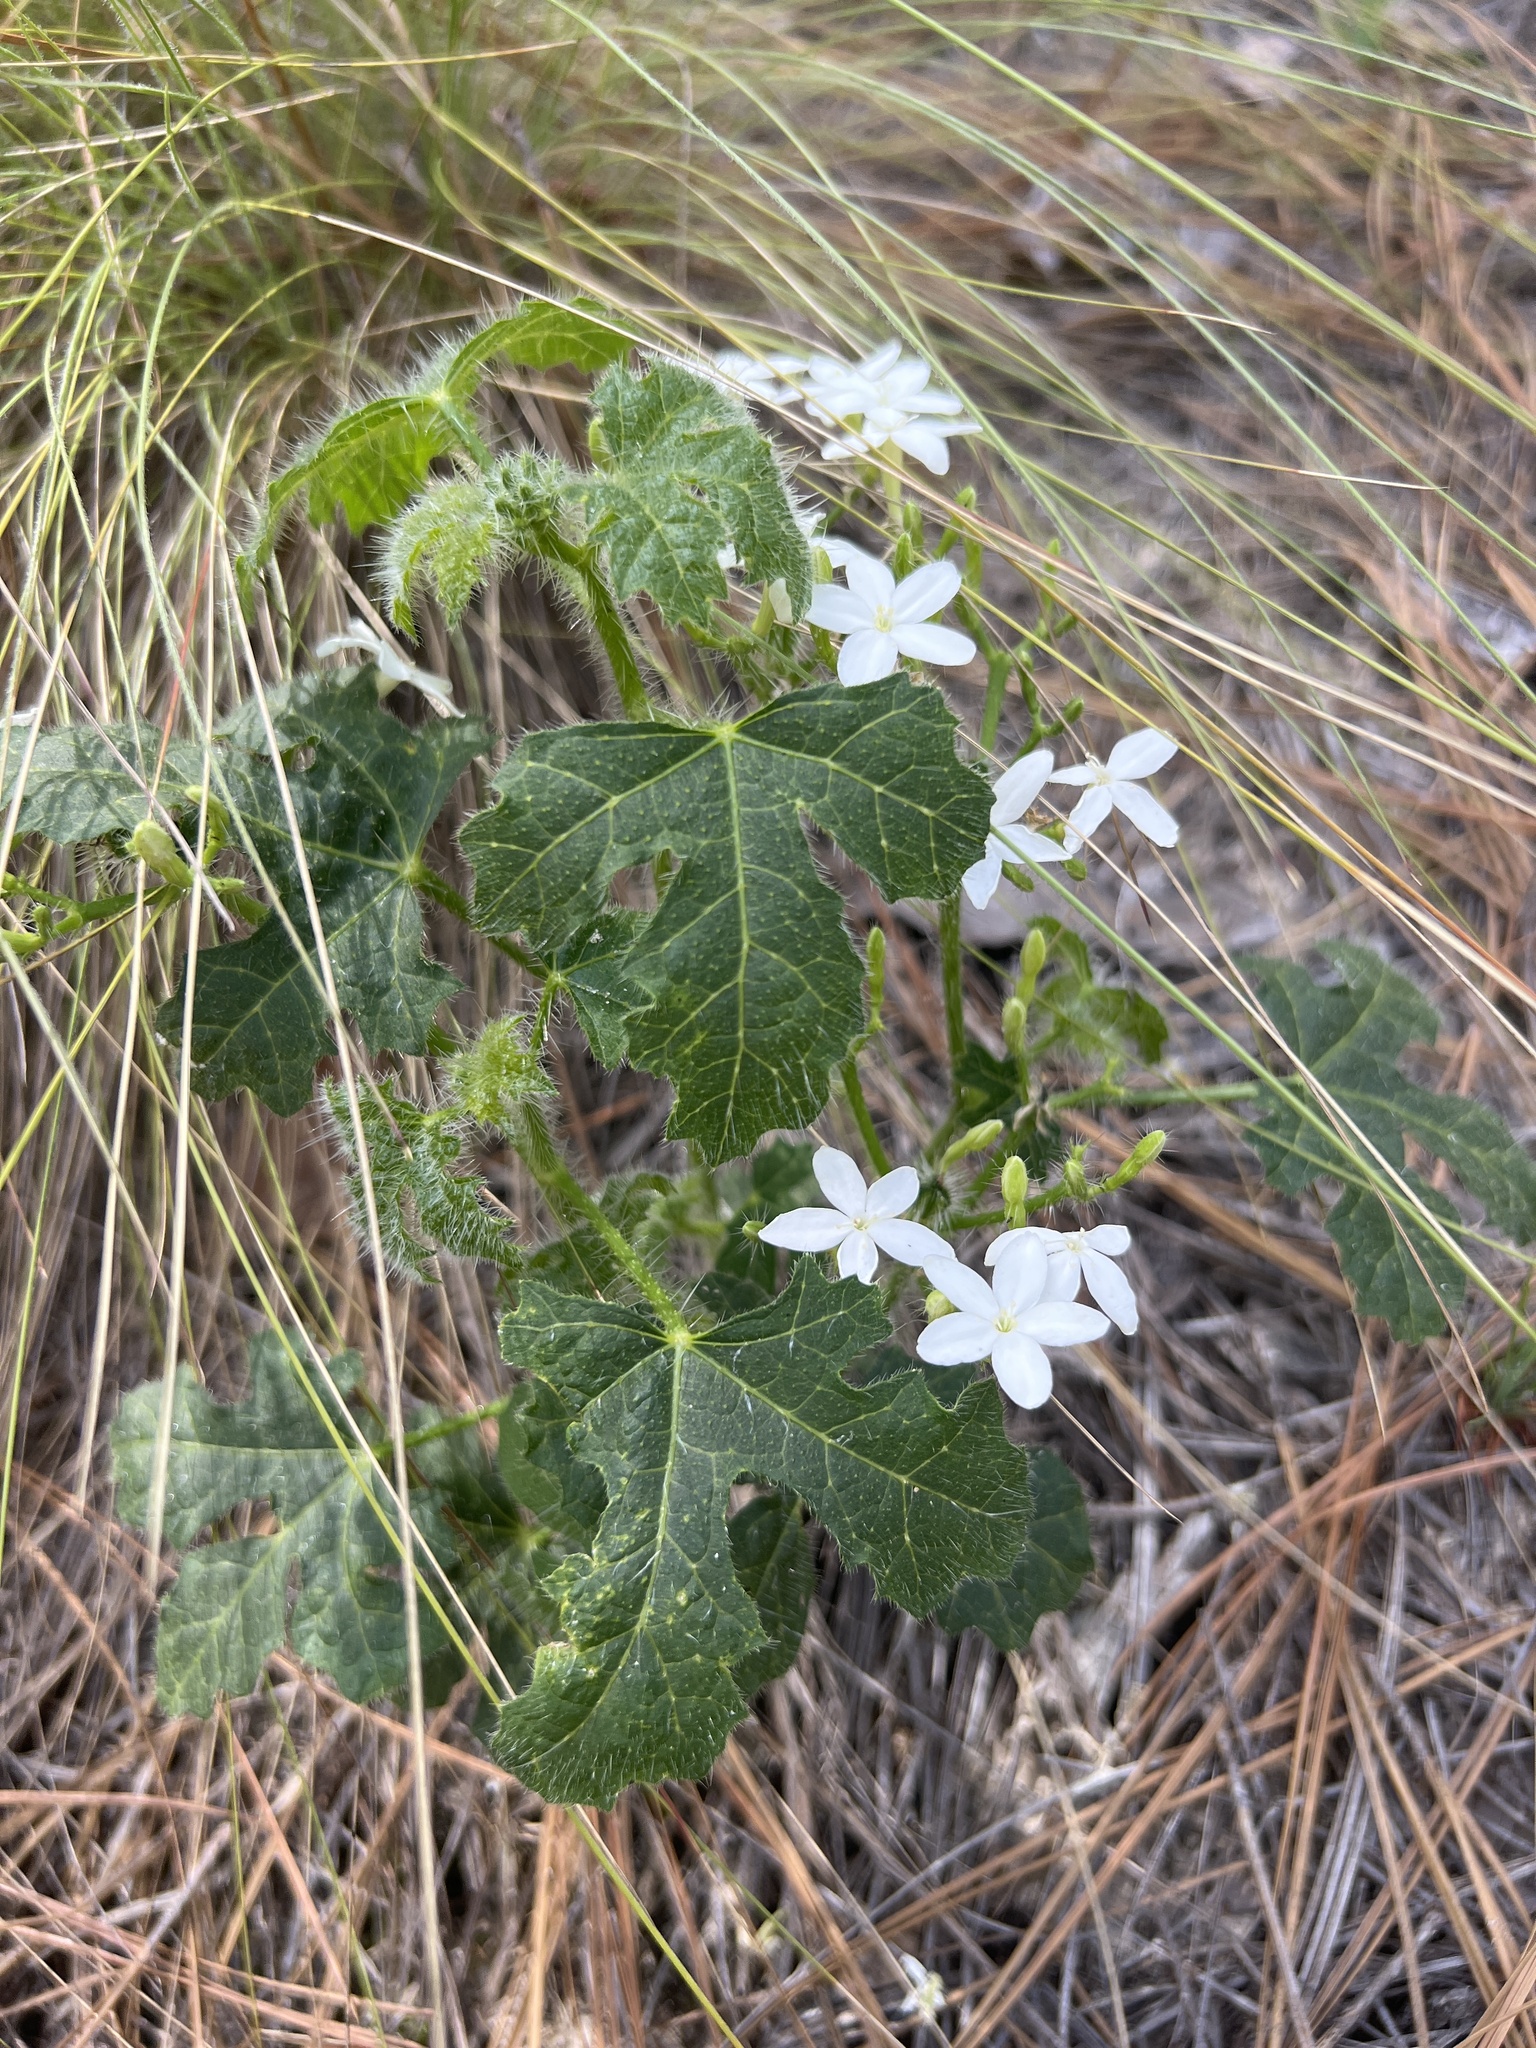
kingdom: Plantae
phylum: Tracheophyta
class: Magnoliopsida
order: Malpighiales
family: Euphorbiaceae
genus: Cnidoscolus
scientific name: Cnidoscolus stimulosus
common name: Bull-nettle
